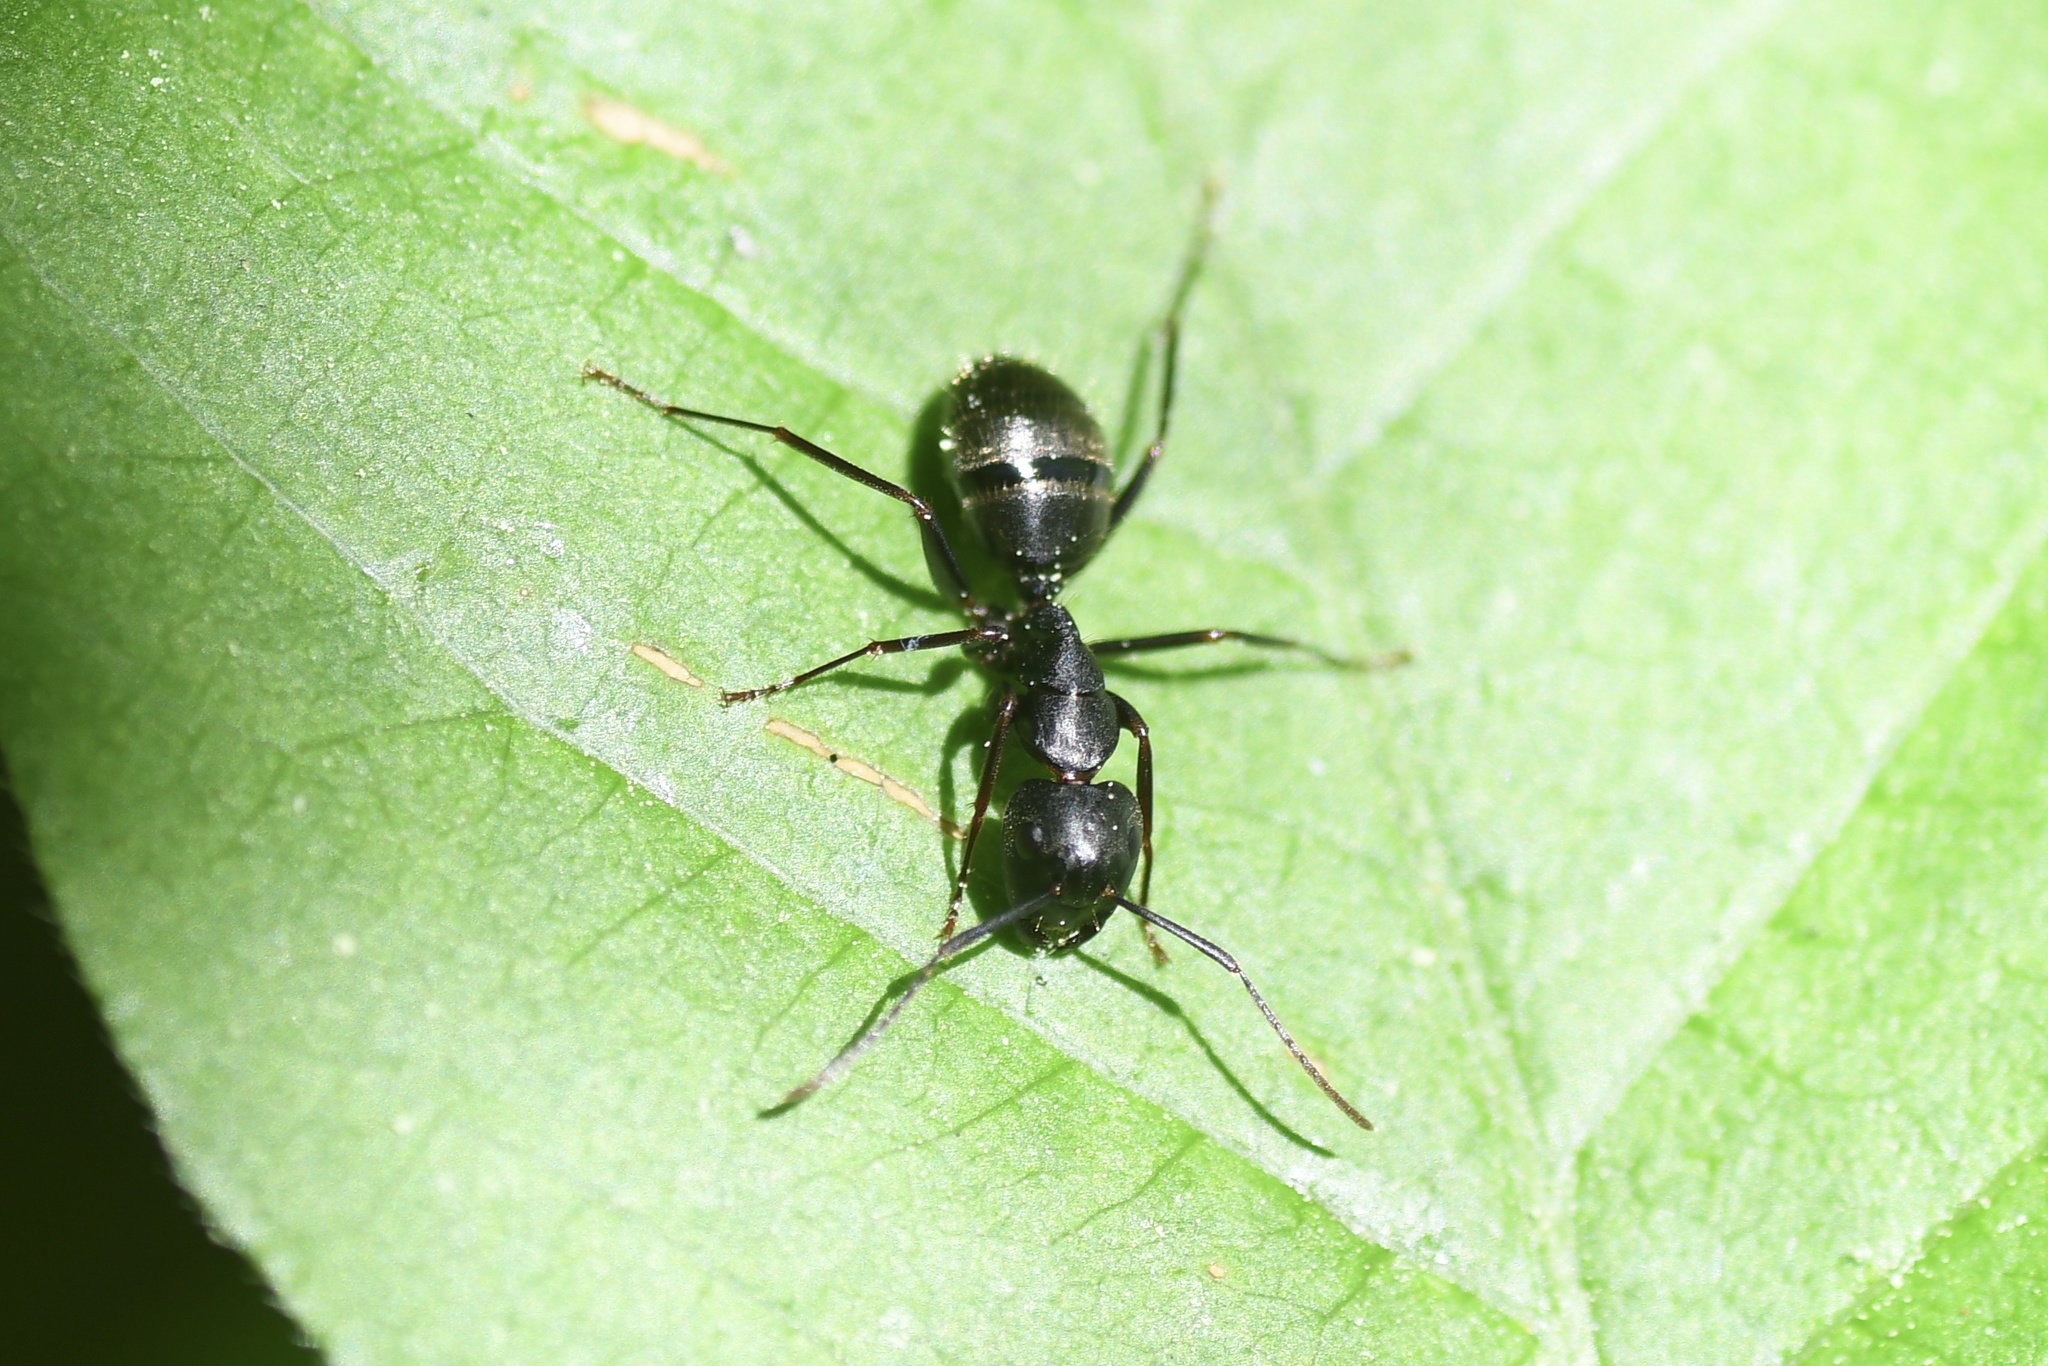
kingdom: Animalia
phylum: Arthropoda
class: Insecta
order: Hymenoptera
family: Formicidae
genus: Camponotus
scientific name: Camponotus pennsylvanicus
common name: Black carpenter ant
